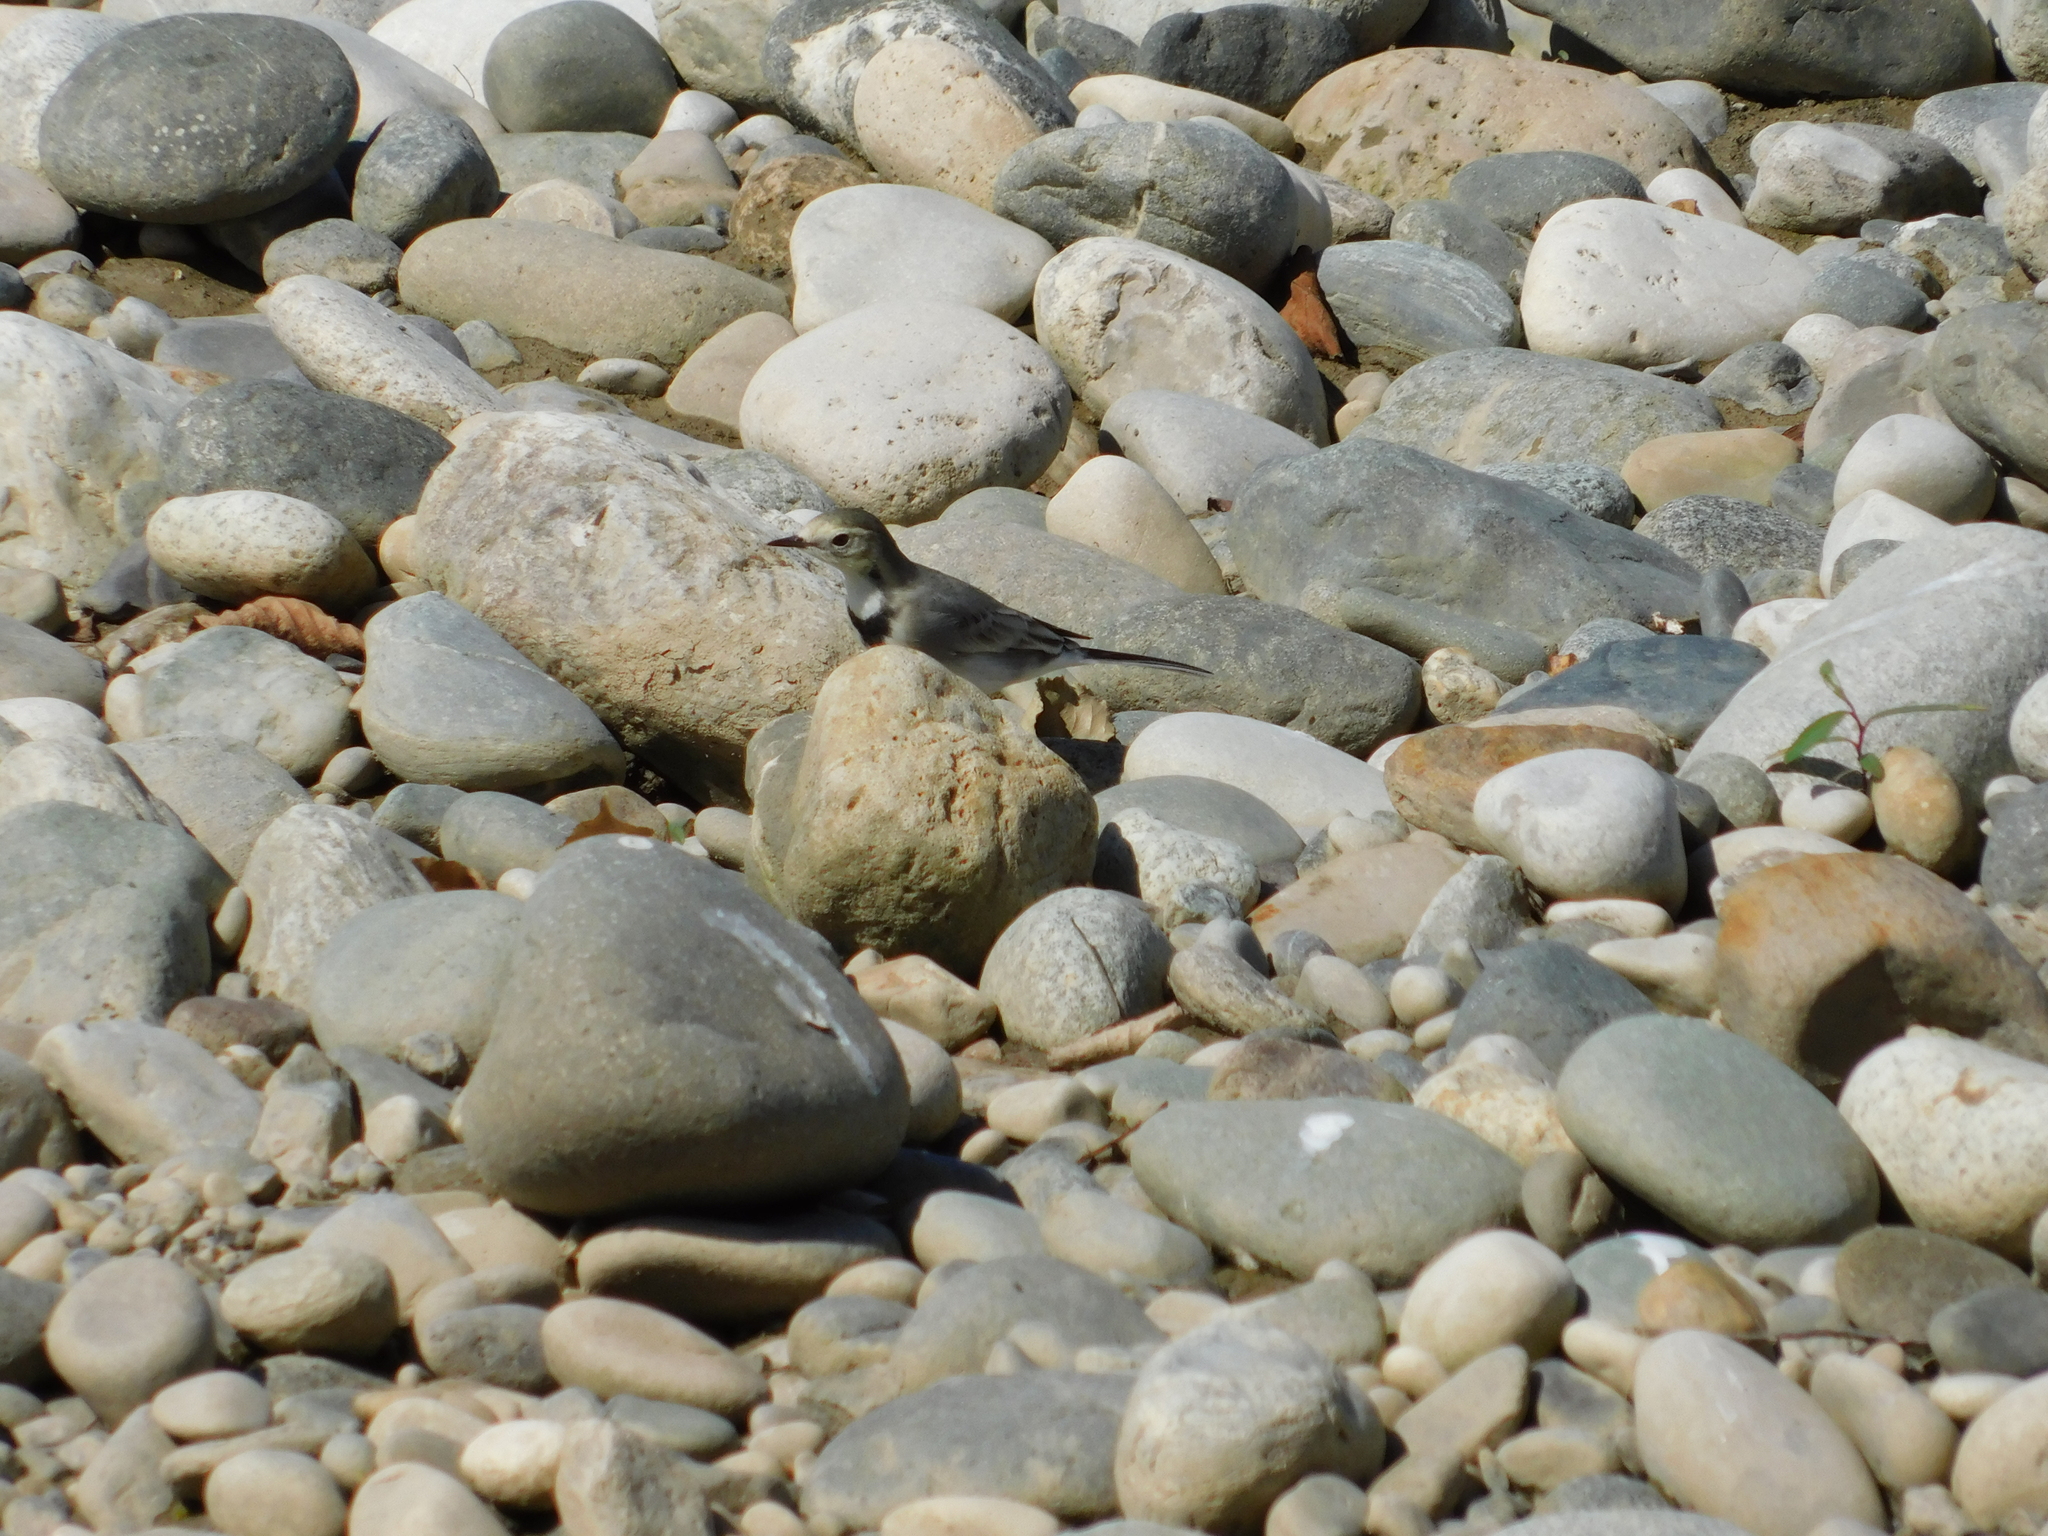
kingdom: Animalia
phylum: Chordata
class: Aves
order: Passeriformes
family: Motacillidae
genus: Motacilla
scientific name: Motacilla alba
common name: White wagtail
